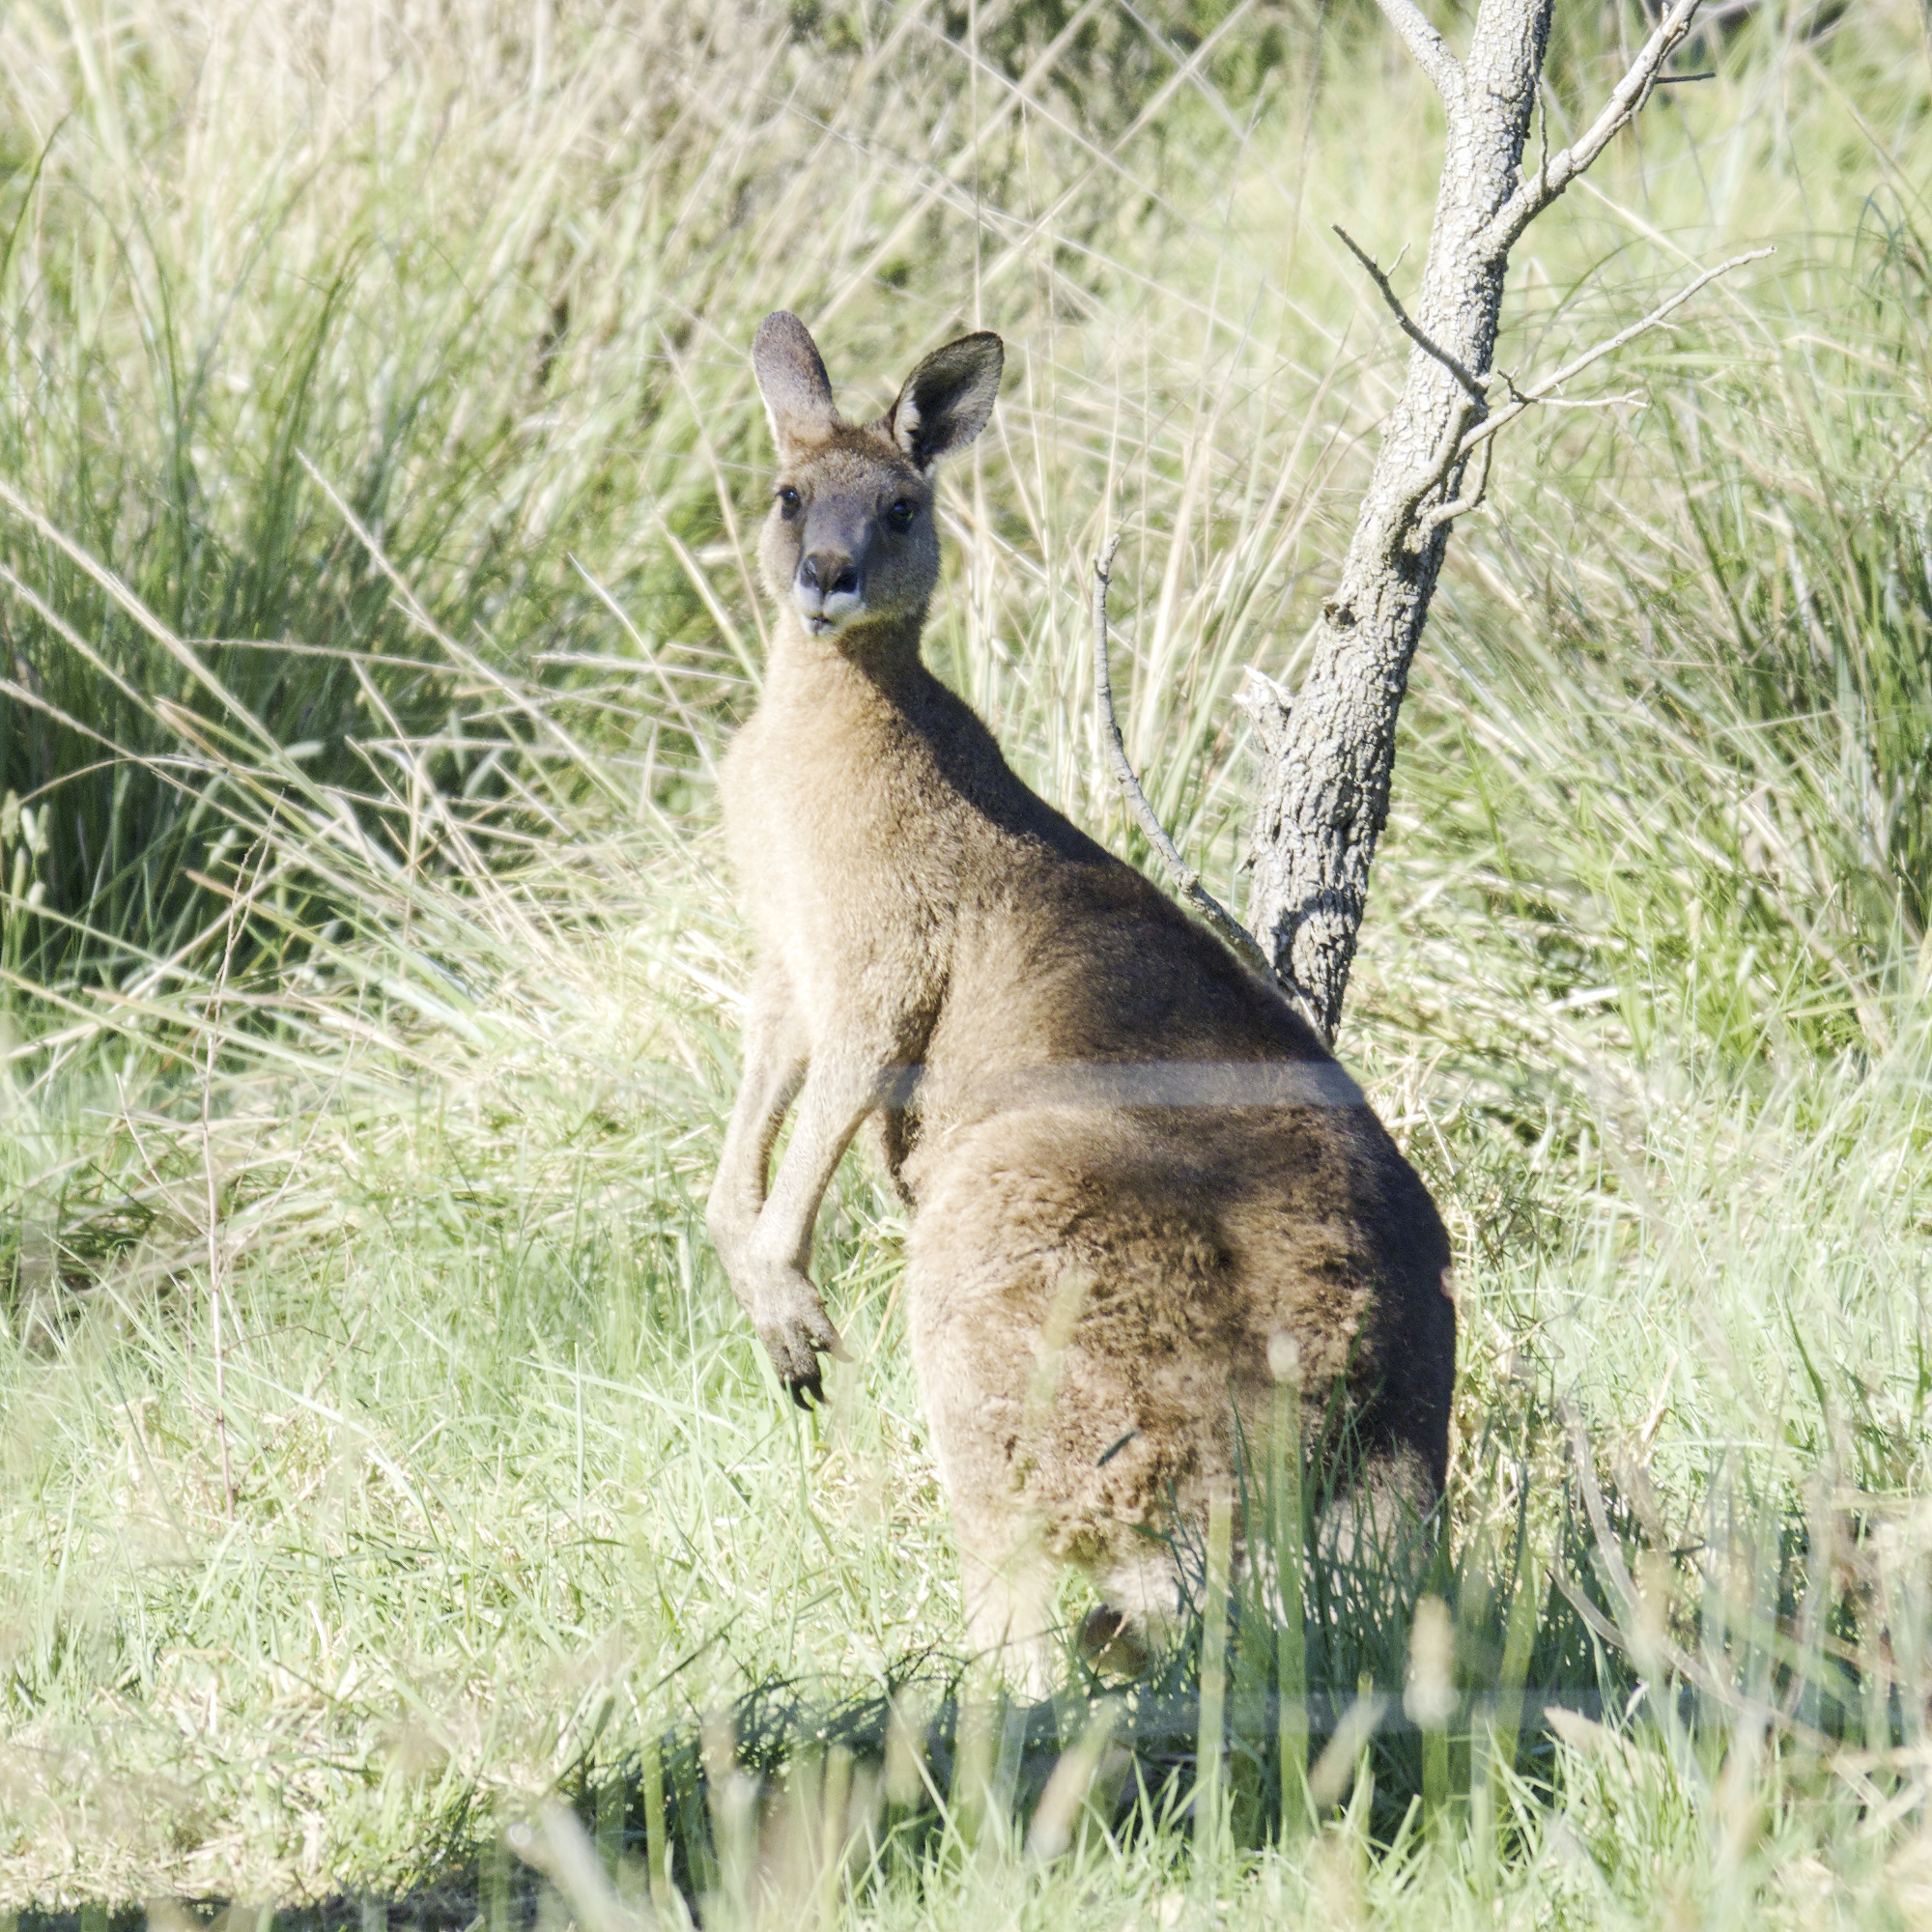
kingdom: Animalia
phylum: Chordata
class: Mammalia
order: Diprotodontia
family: Macropodidae
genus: Macropus
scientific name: Macropus giganteus
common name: Eastern grey kangaroo
